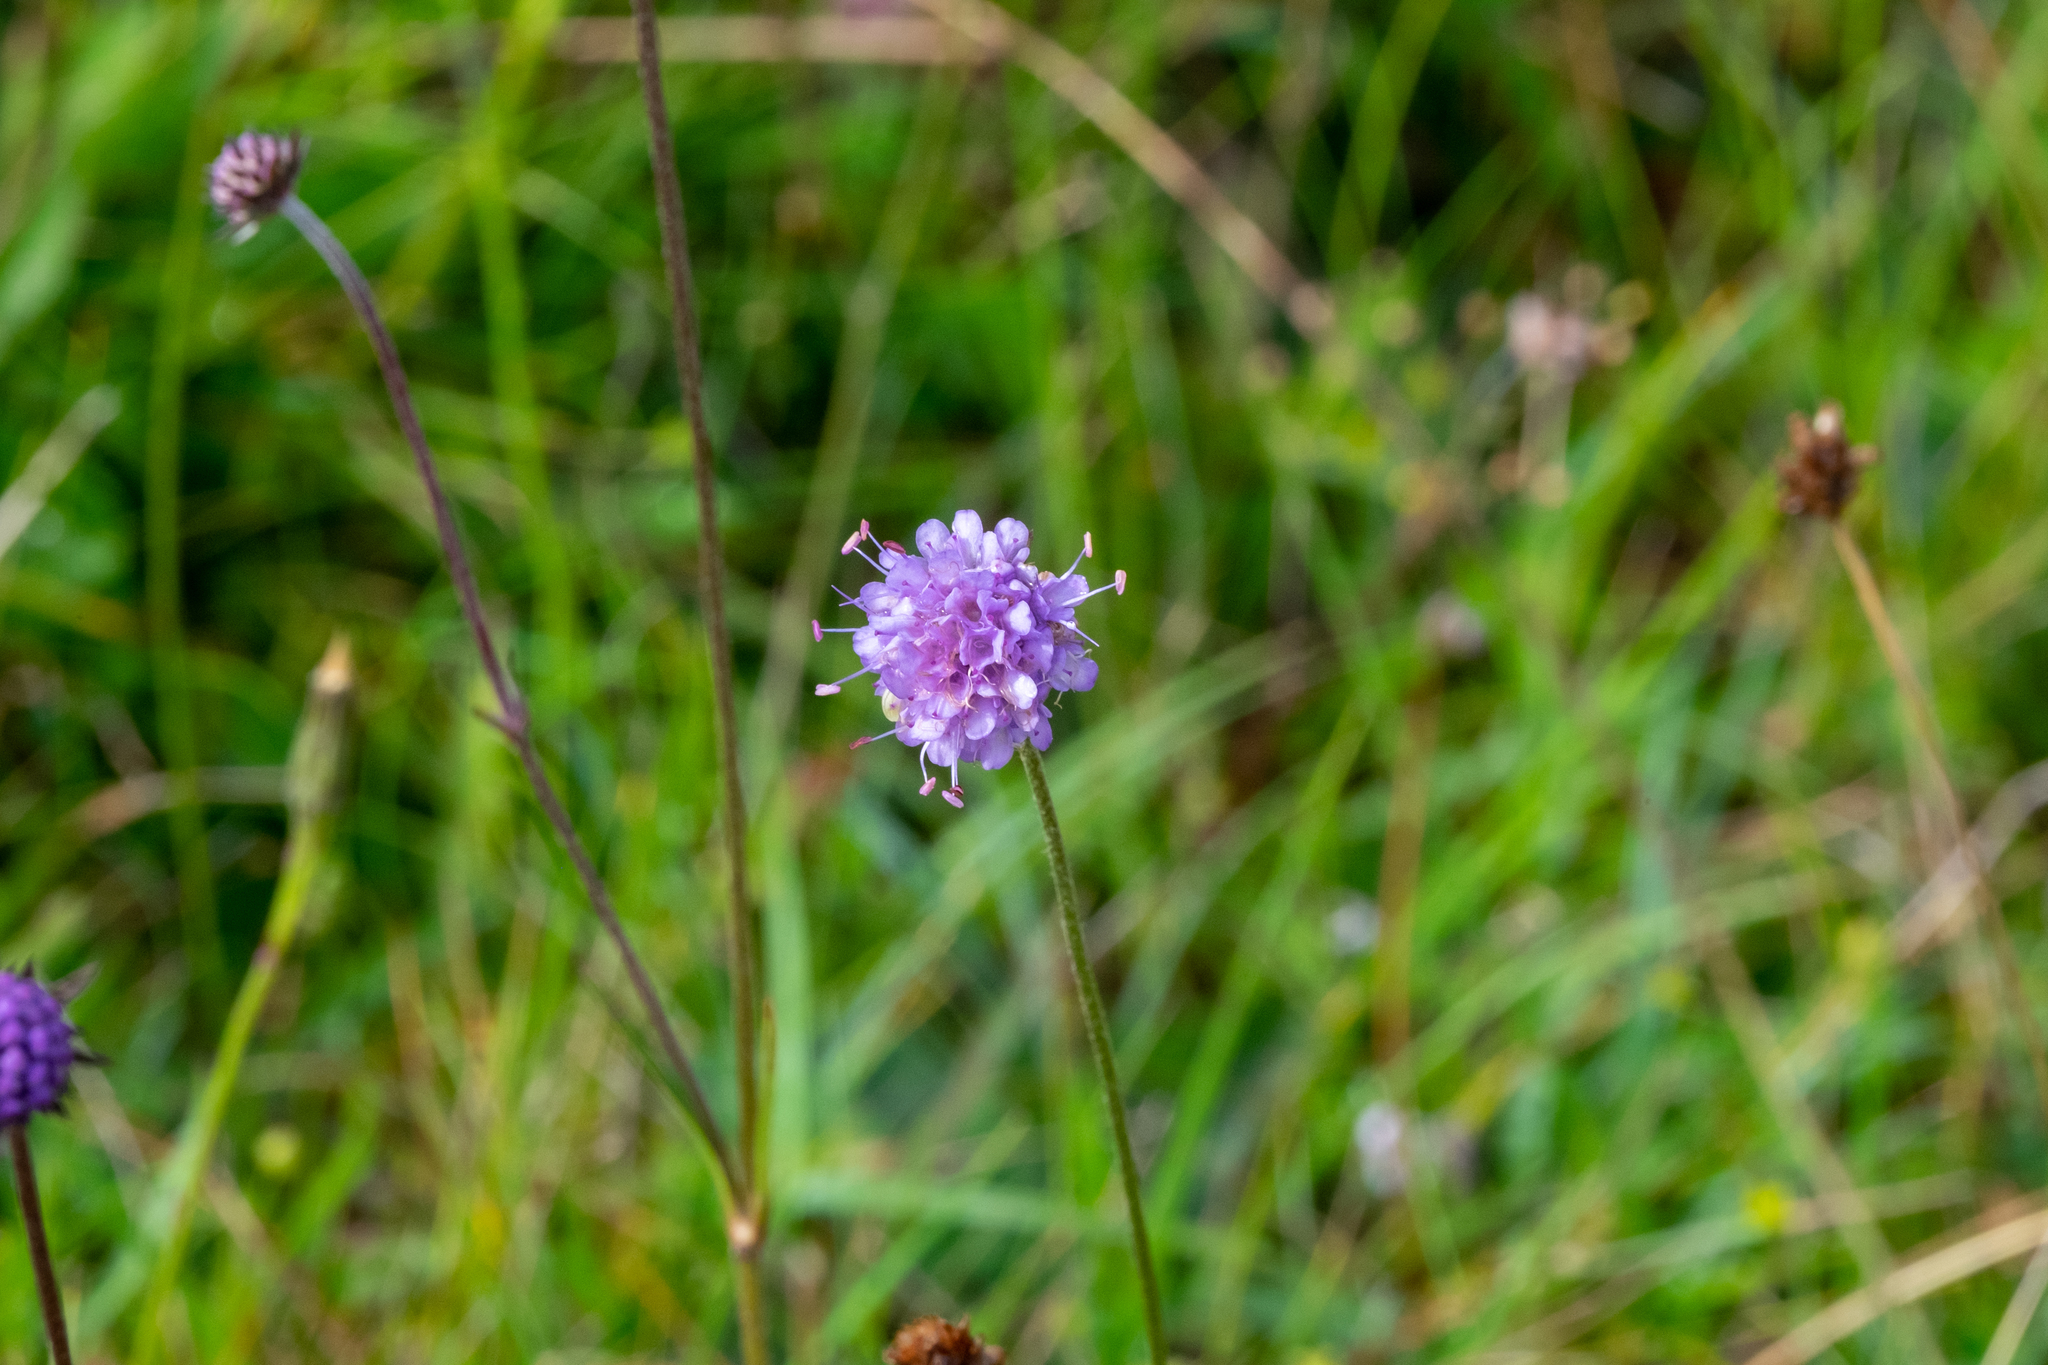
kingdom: Plantae
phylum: Tracheophyta
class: Magnoliopsida
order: Dipsacales
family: Caprifoliaceae
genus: Succisa
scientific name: Succisa pratensis
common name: Devil's-bit
